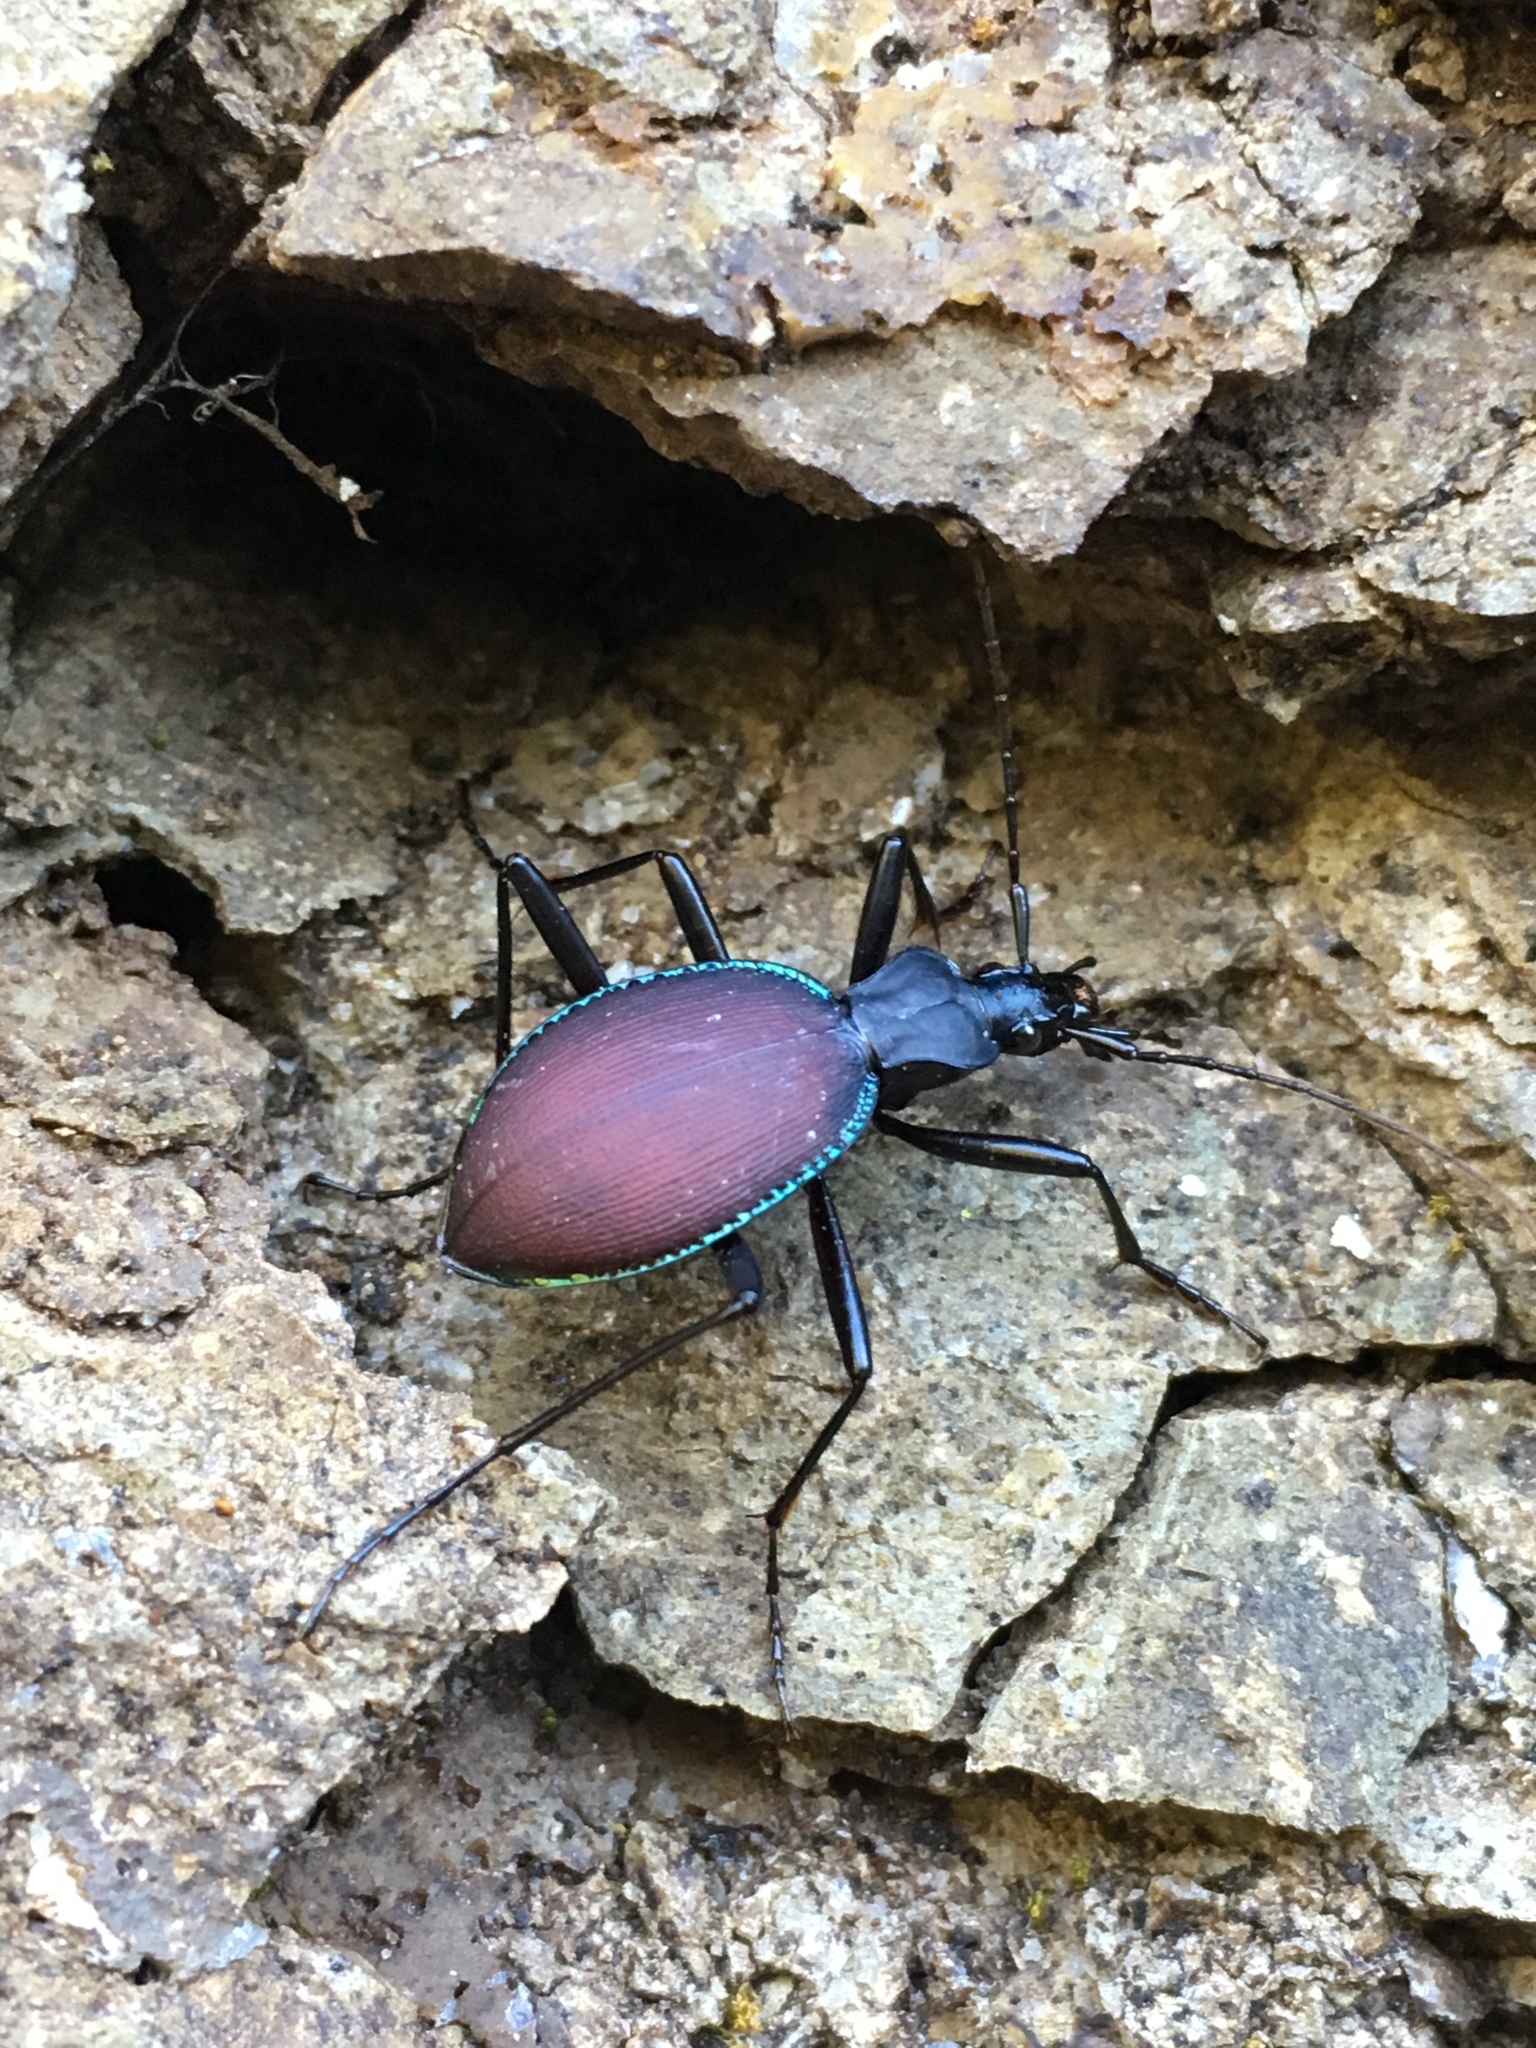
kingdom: Animalia
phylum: Arthropoda
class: Insecta
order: Coleoptera
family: Carabidae
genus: Scaphinotus
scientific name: Scaphinotus angusticollis
